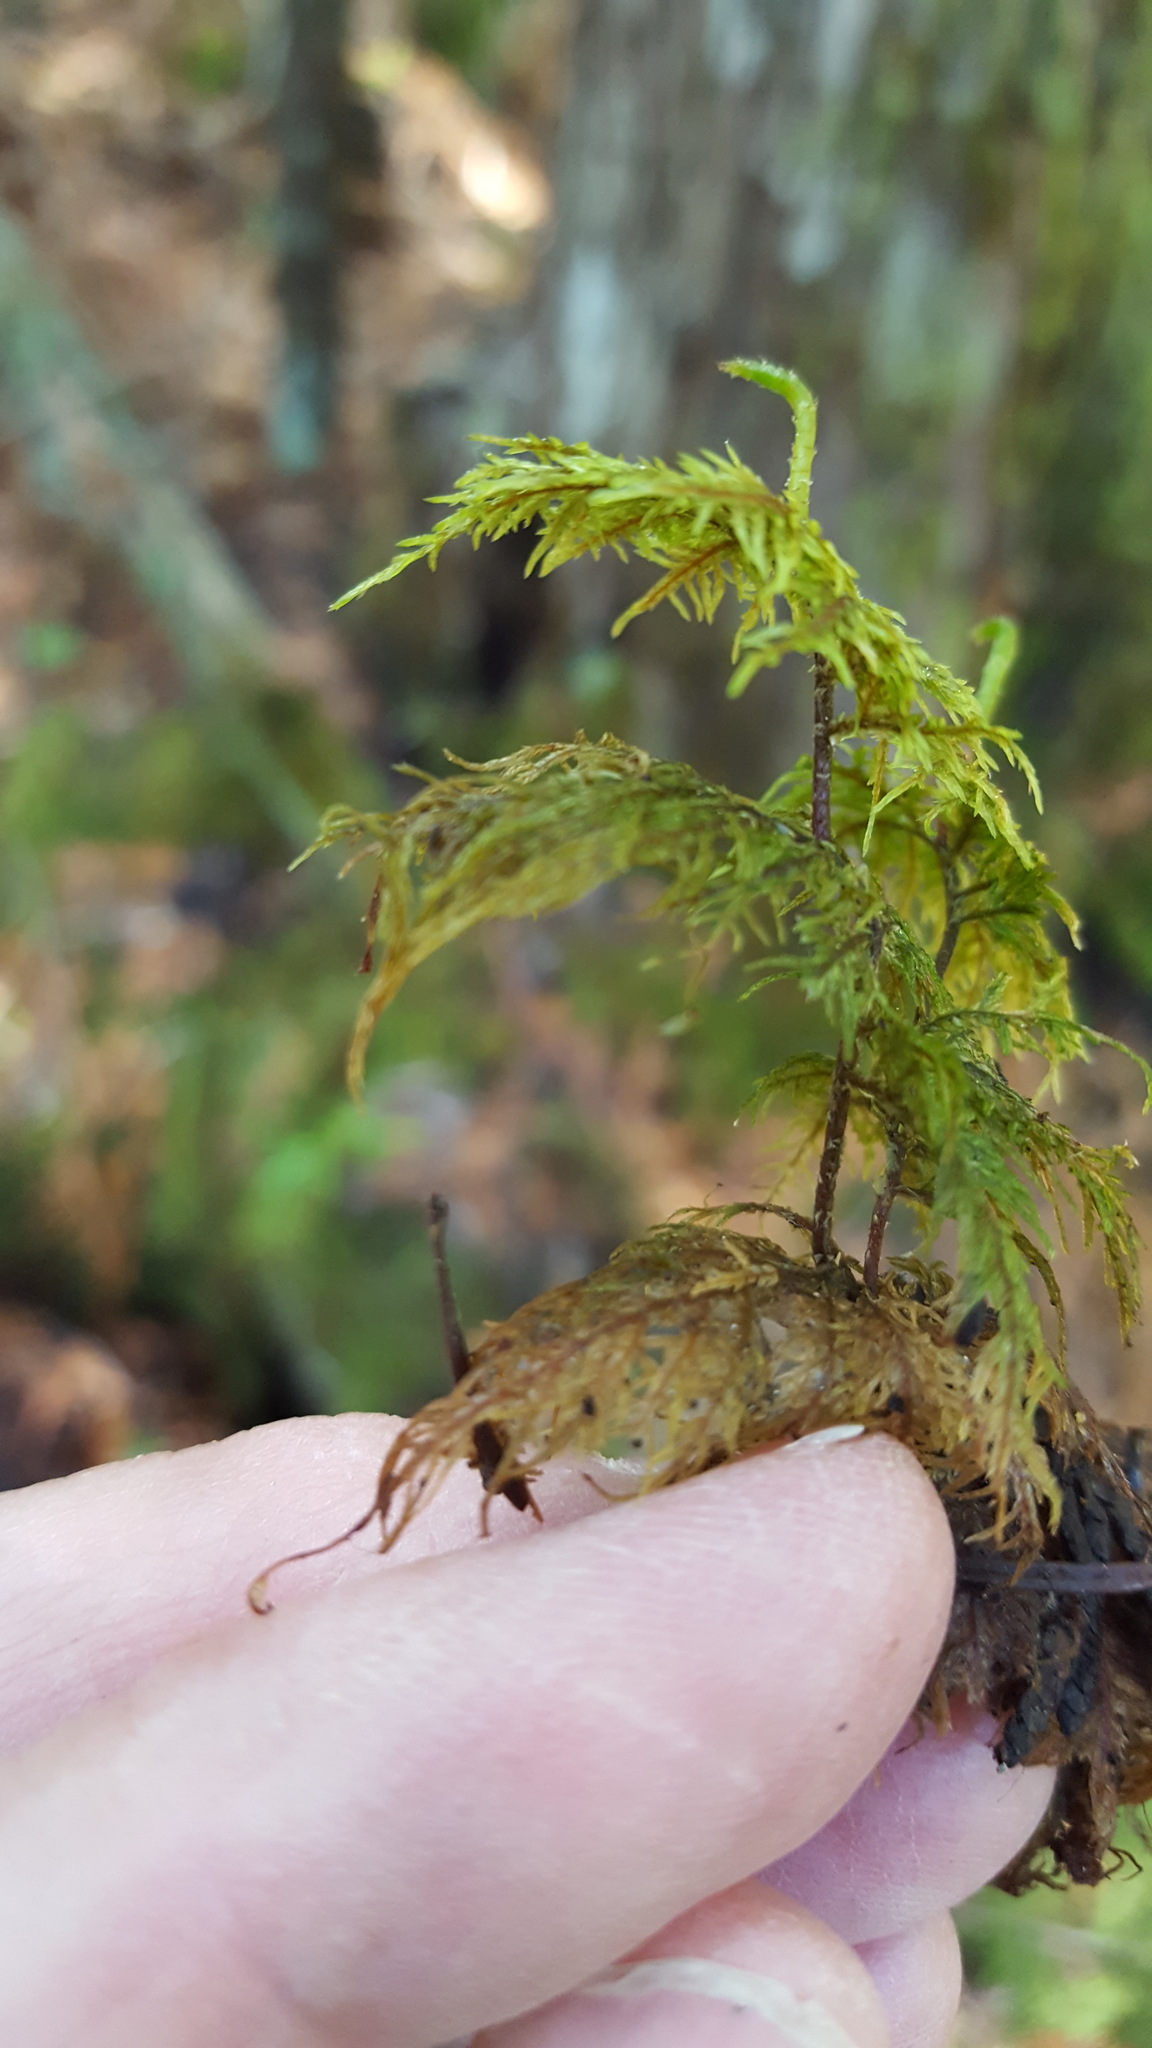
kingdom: Plantae
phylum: Bryophyta
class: Bryopsida
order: Hypnales
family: Hylocomiaceae
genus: Hylocomium
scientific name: Hylocomium splendens
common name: Stairstep moss
